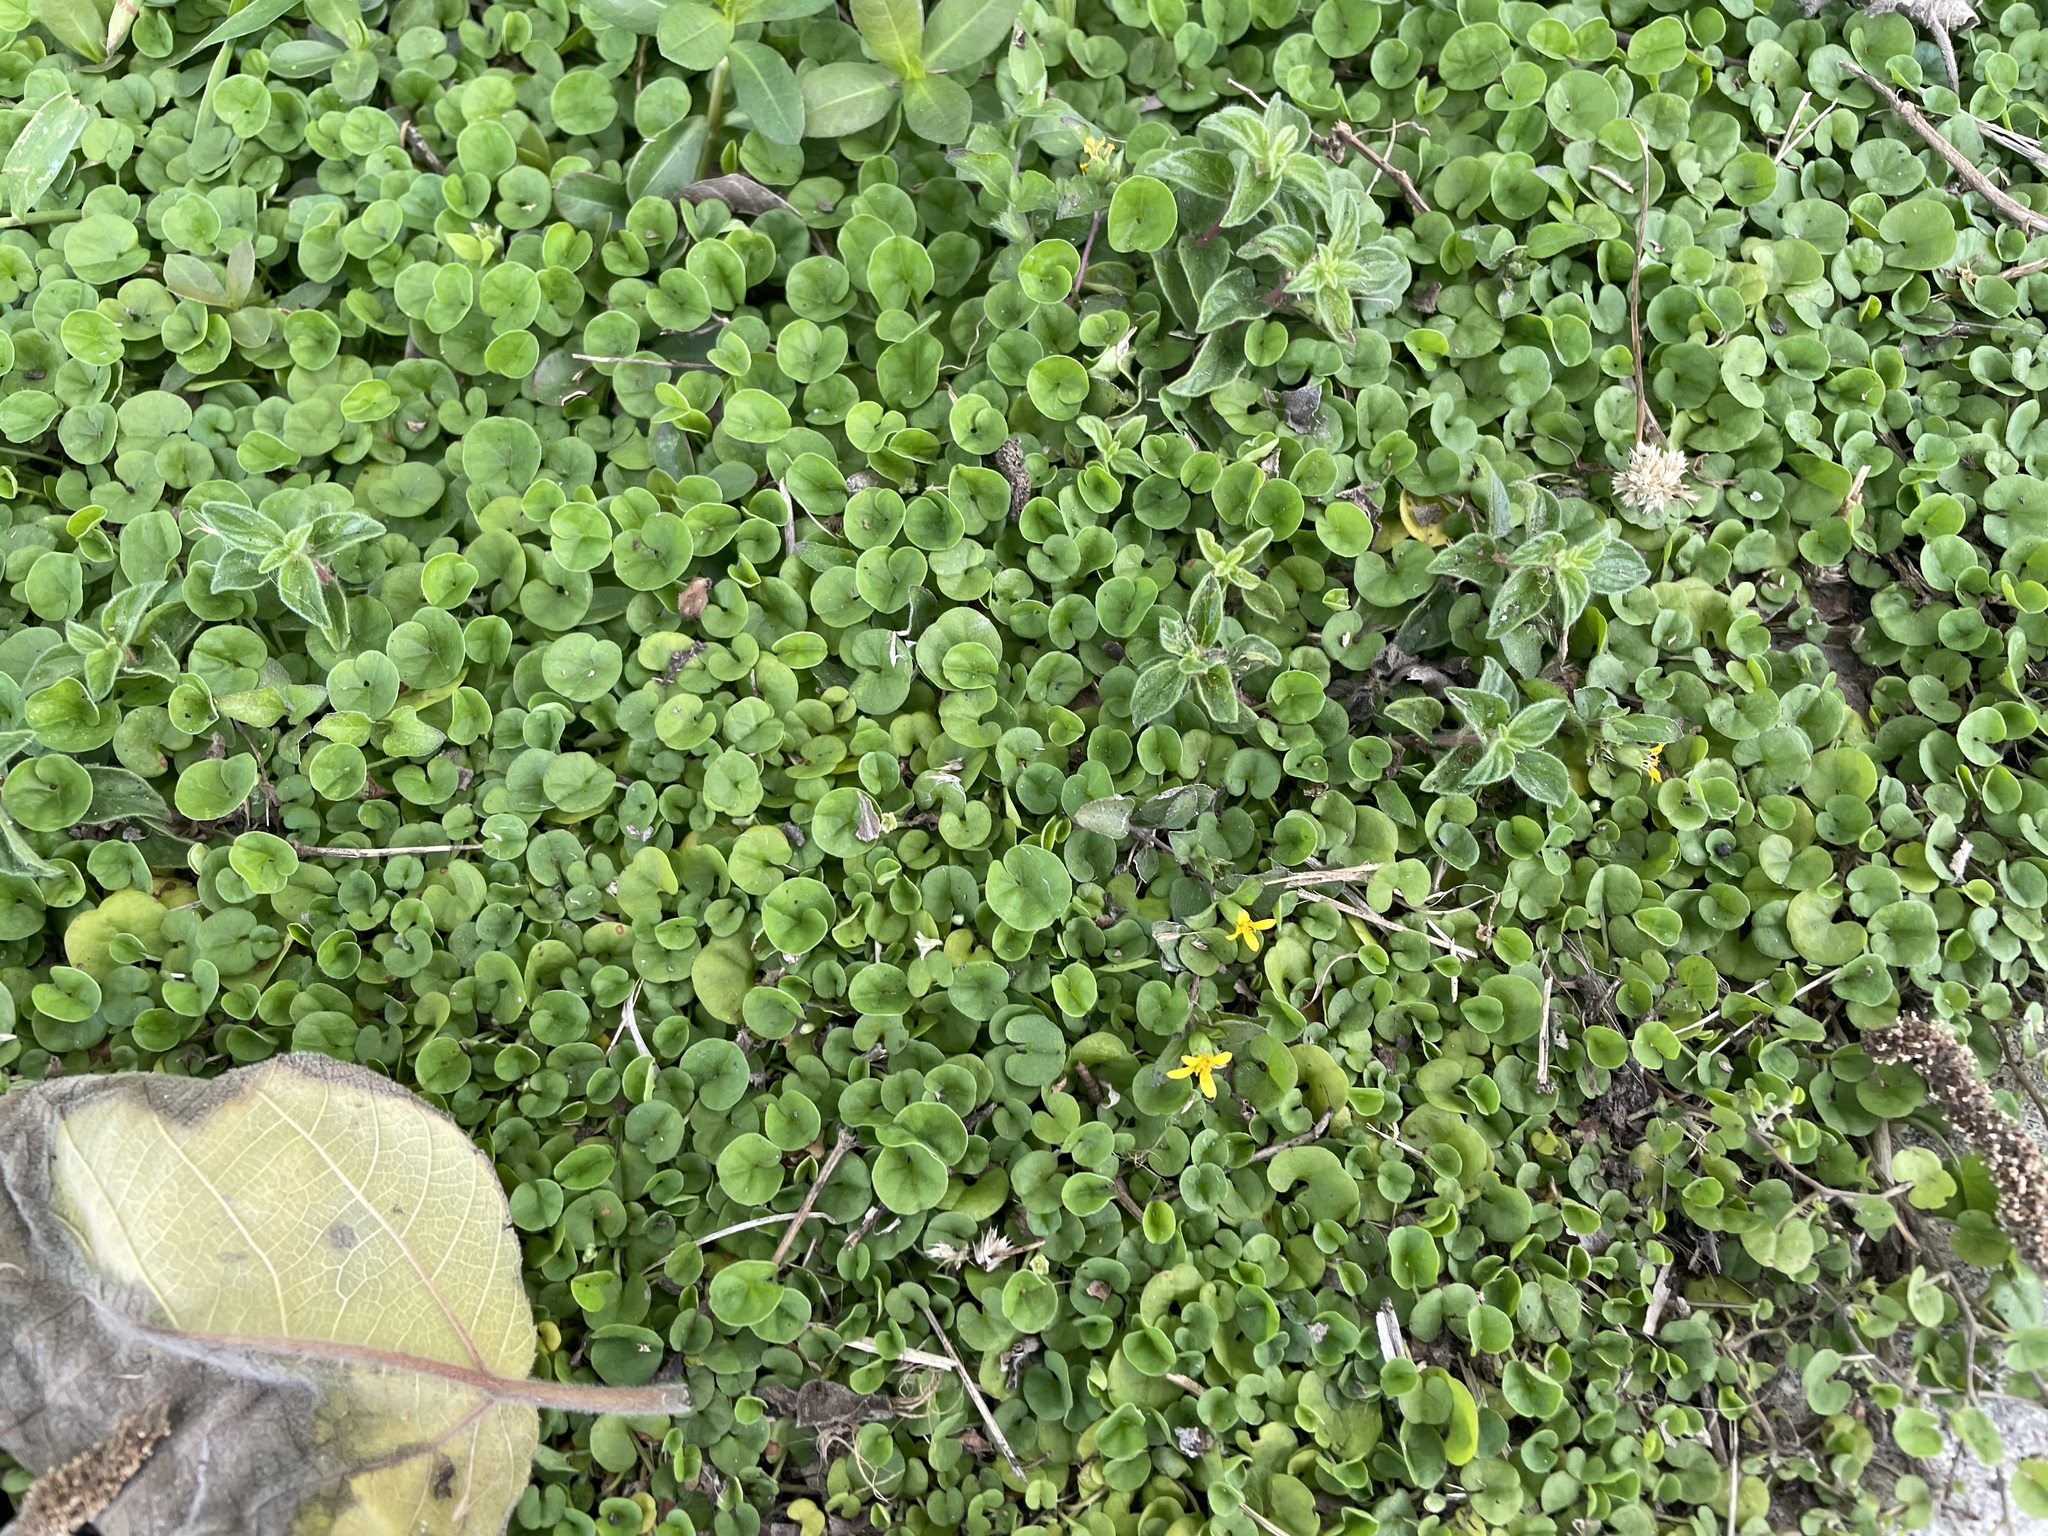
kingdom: Plantae
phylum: Tracheophyta
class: Magnoliopsida
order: Solanales
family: Convolvulaceae
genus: Dichondra
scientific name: Dichondra micrantha
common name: Kidneyweed
